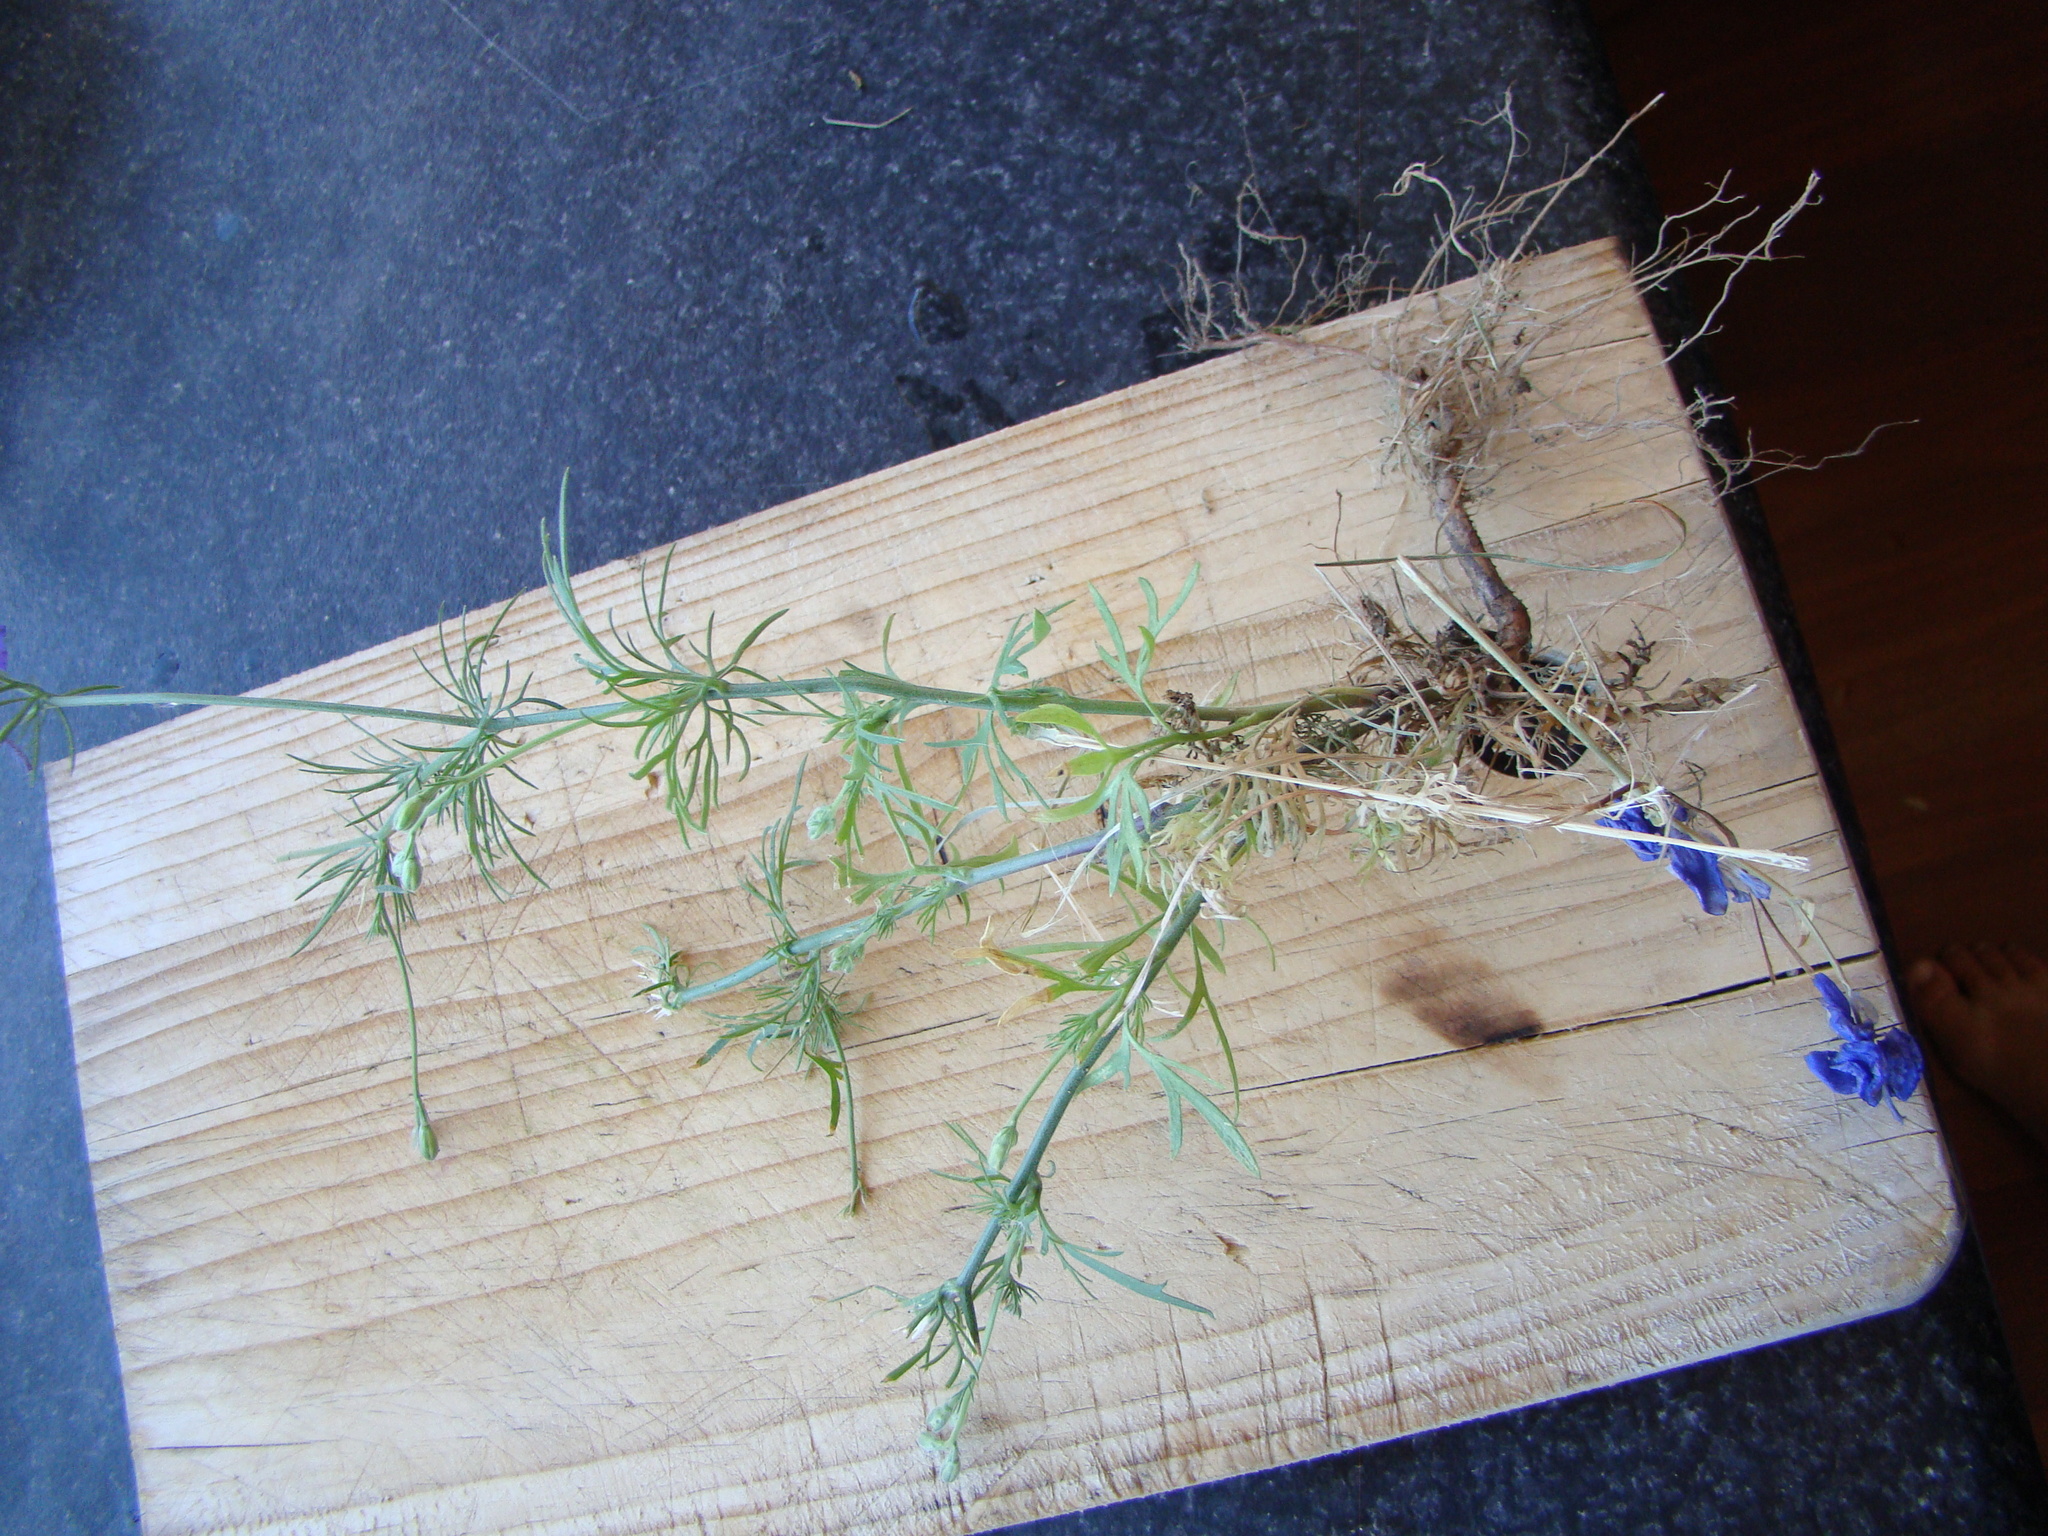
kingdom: Plantae
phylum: Tracheophyta
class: Magnoliopsida
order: Ranunculales
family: Ranunculaceae
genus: Delphinium
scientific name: Delphinium ajacis
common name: Doubtful knight's-spur
